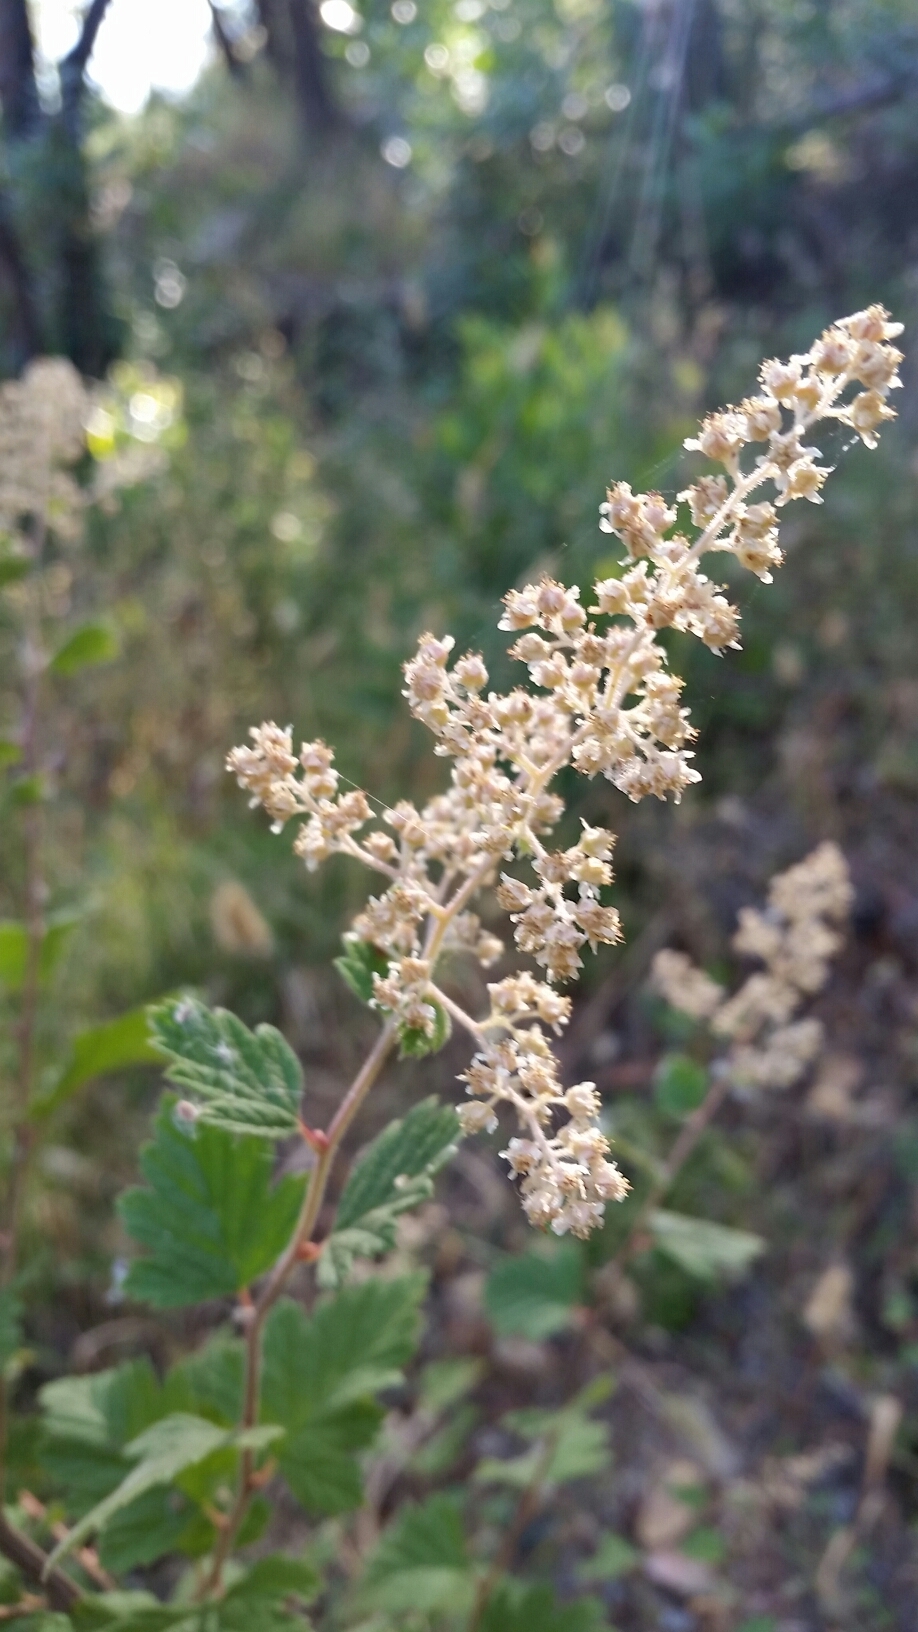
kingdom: Plantae
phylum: Tracheophyta
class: Magnoliopsida
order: Rosales
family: Rosaceae
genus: Holodiscus
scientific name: Holodiscus discolor
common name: Oceanspray
